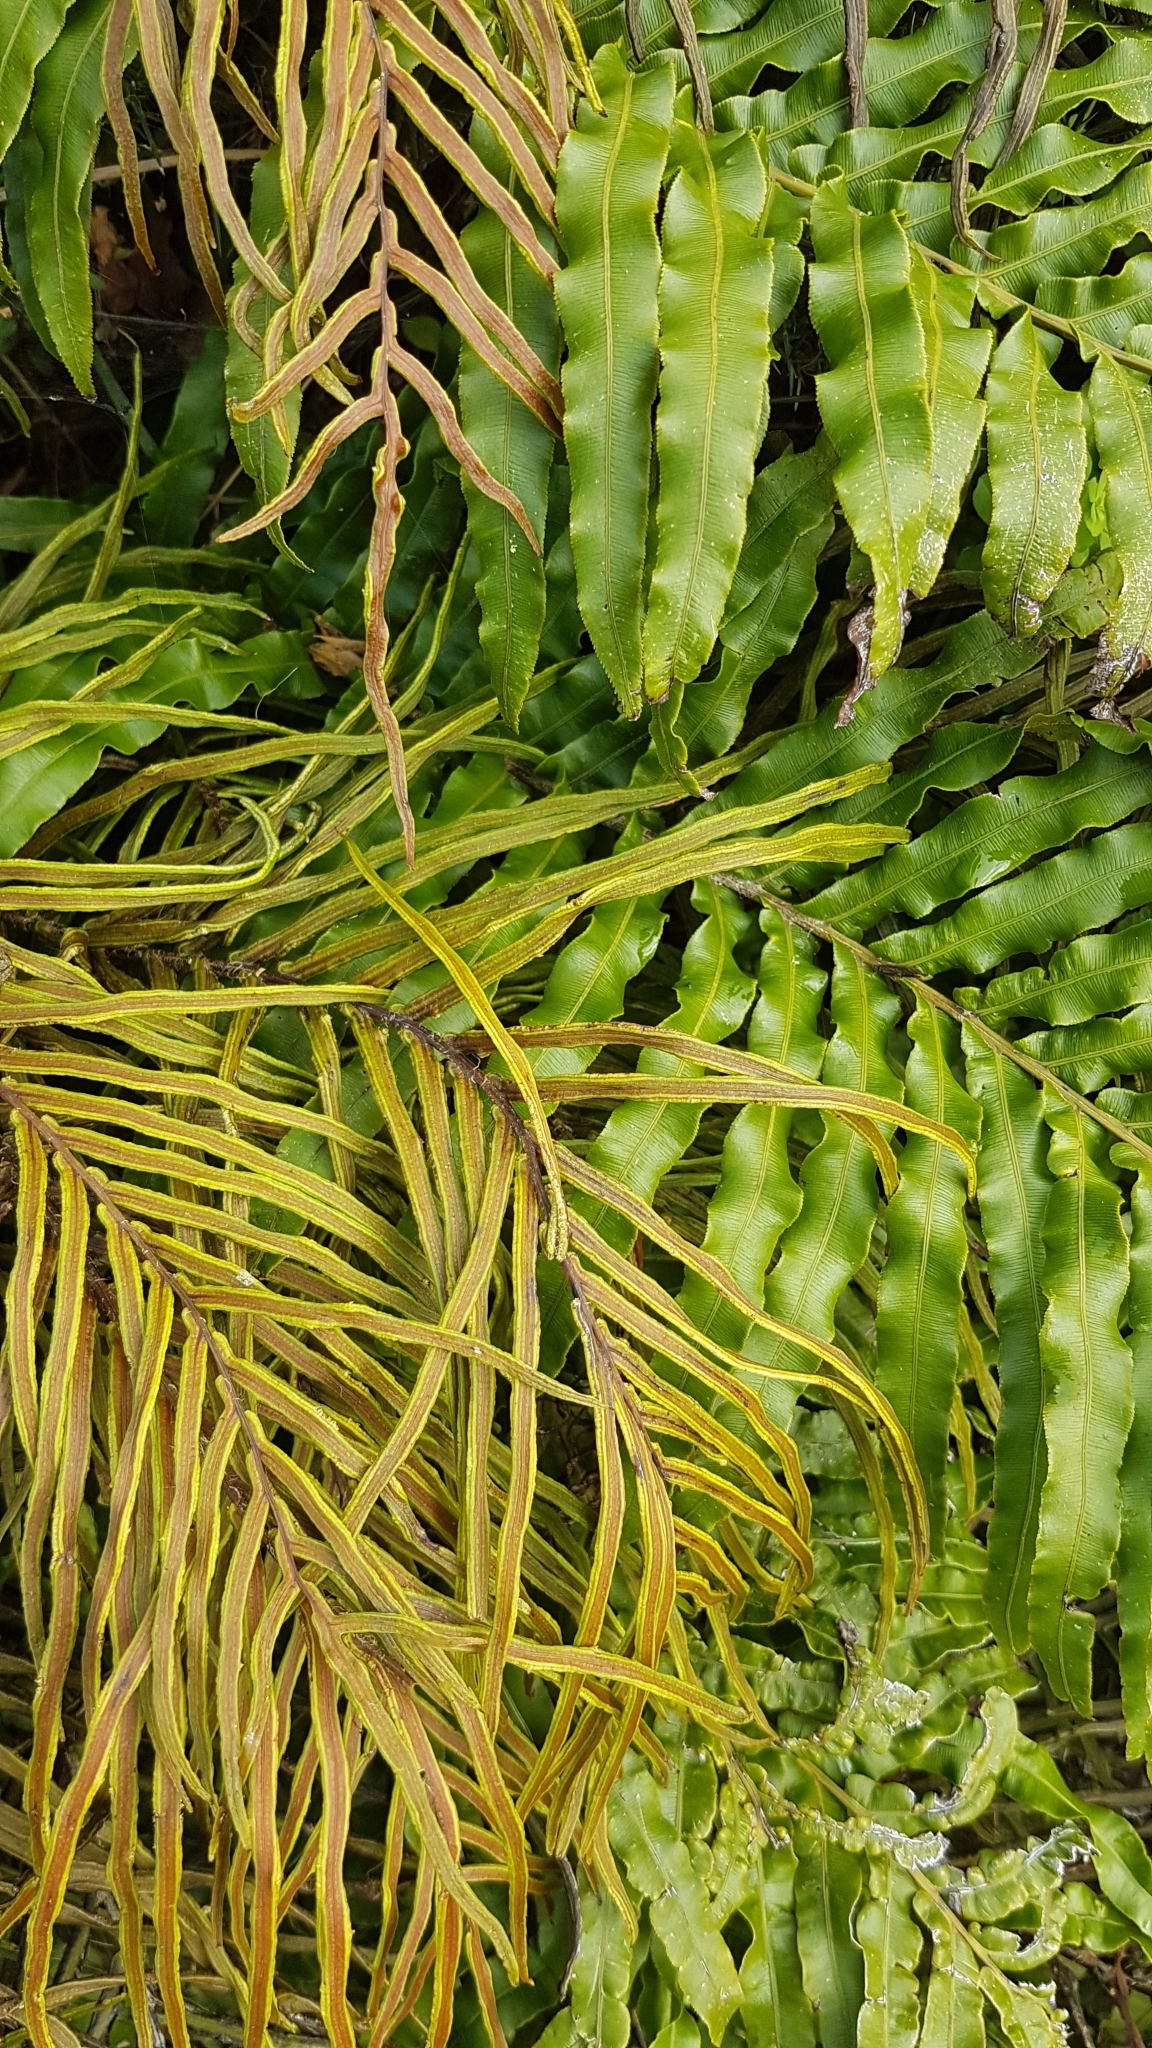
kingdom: Plantae
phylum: Tracheophyta
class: Polypodiopsida
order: Polypodiales
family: Blechnaceae
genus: Parablechnum
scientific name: Parablechnum novae-zelandiae
